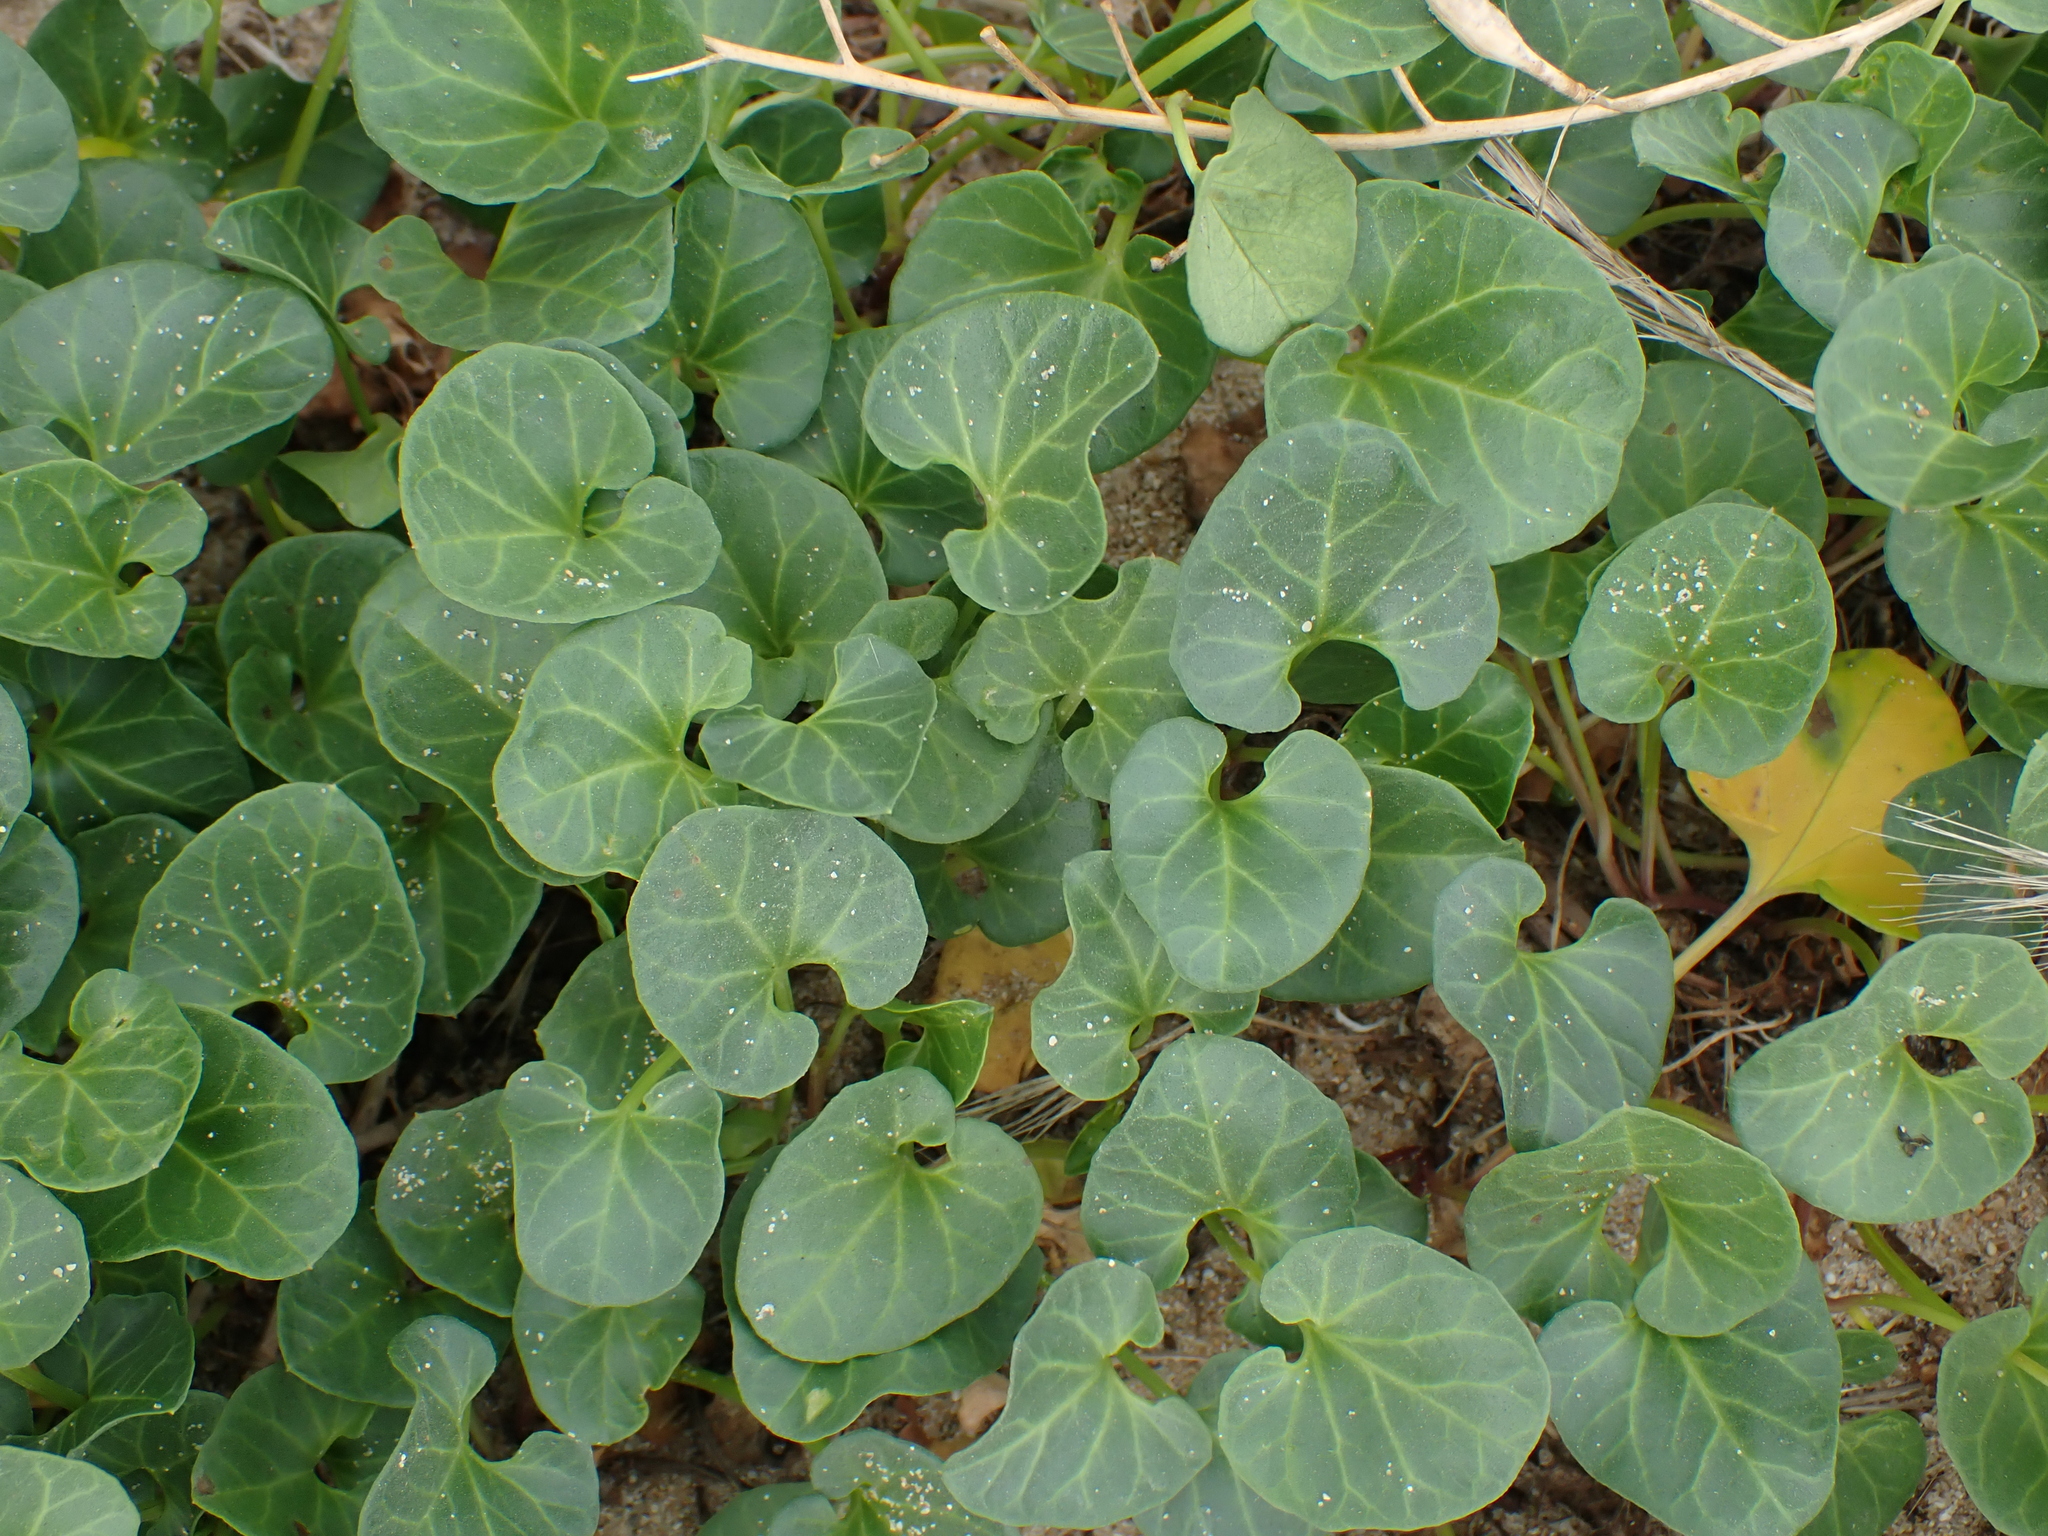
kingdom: Plantae
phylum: Tracheophyta
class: Magnoliopsida
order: Solanales
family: Convolvulaceae
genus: Calystegia
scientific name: Calystegia soldanella
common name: Sea bindweed
